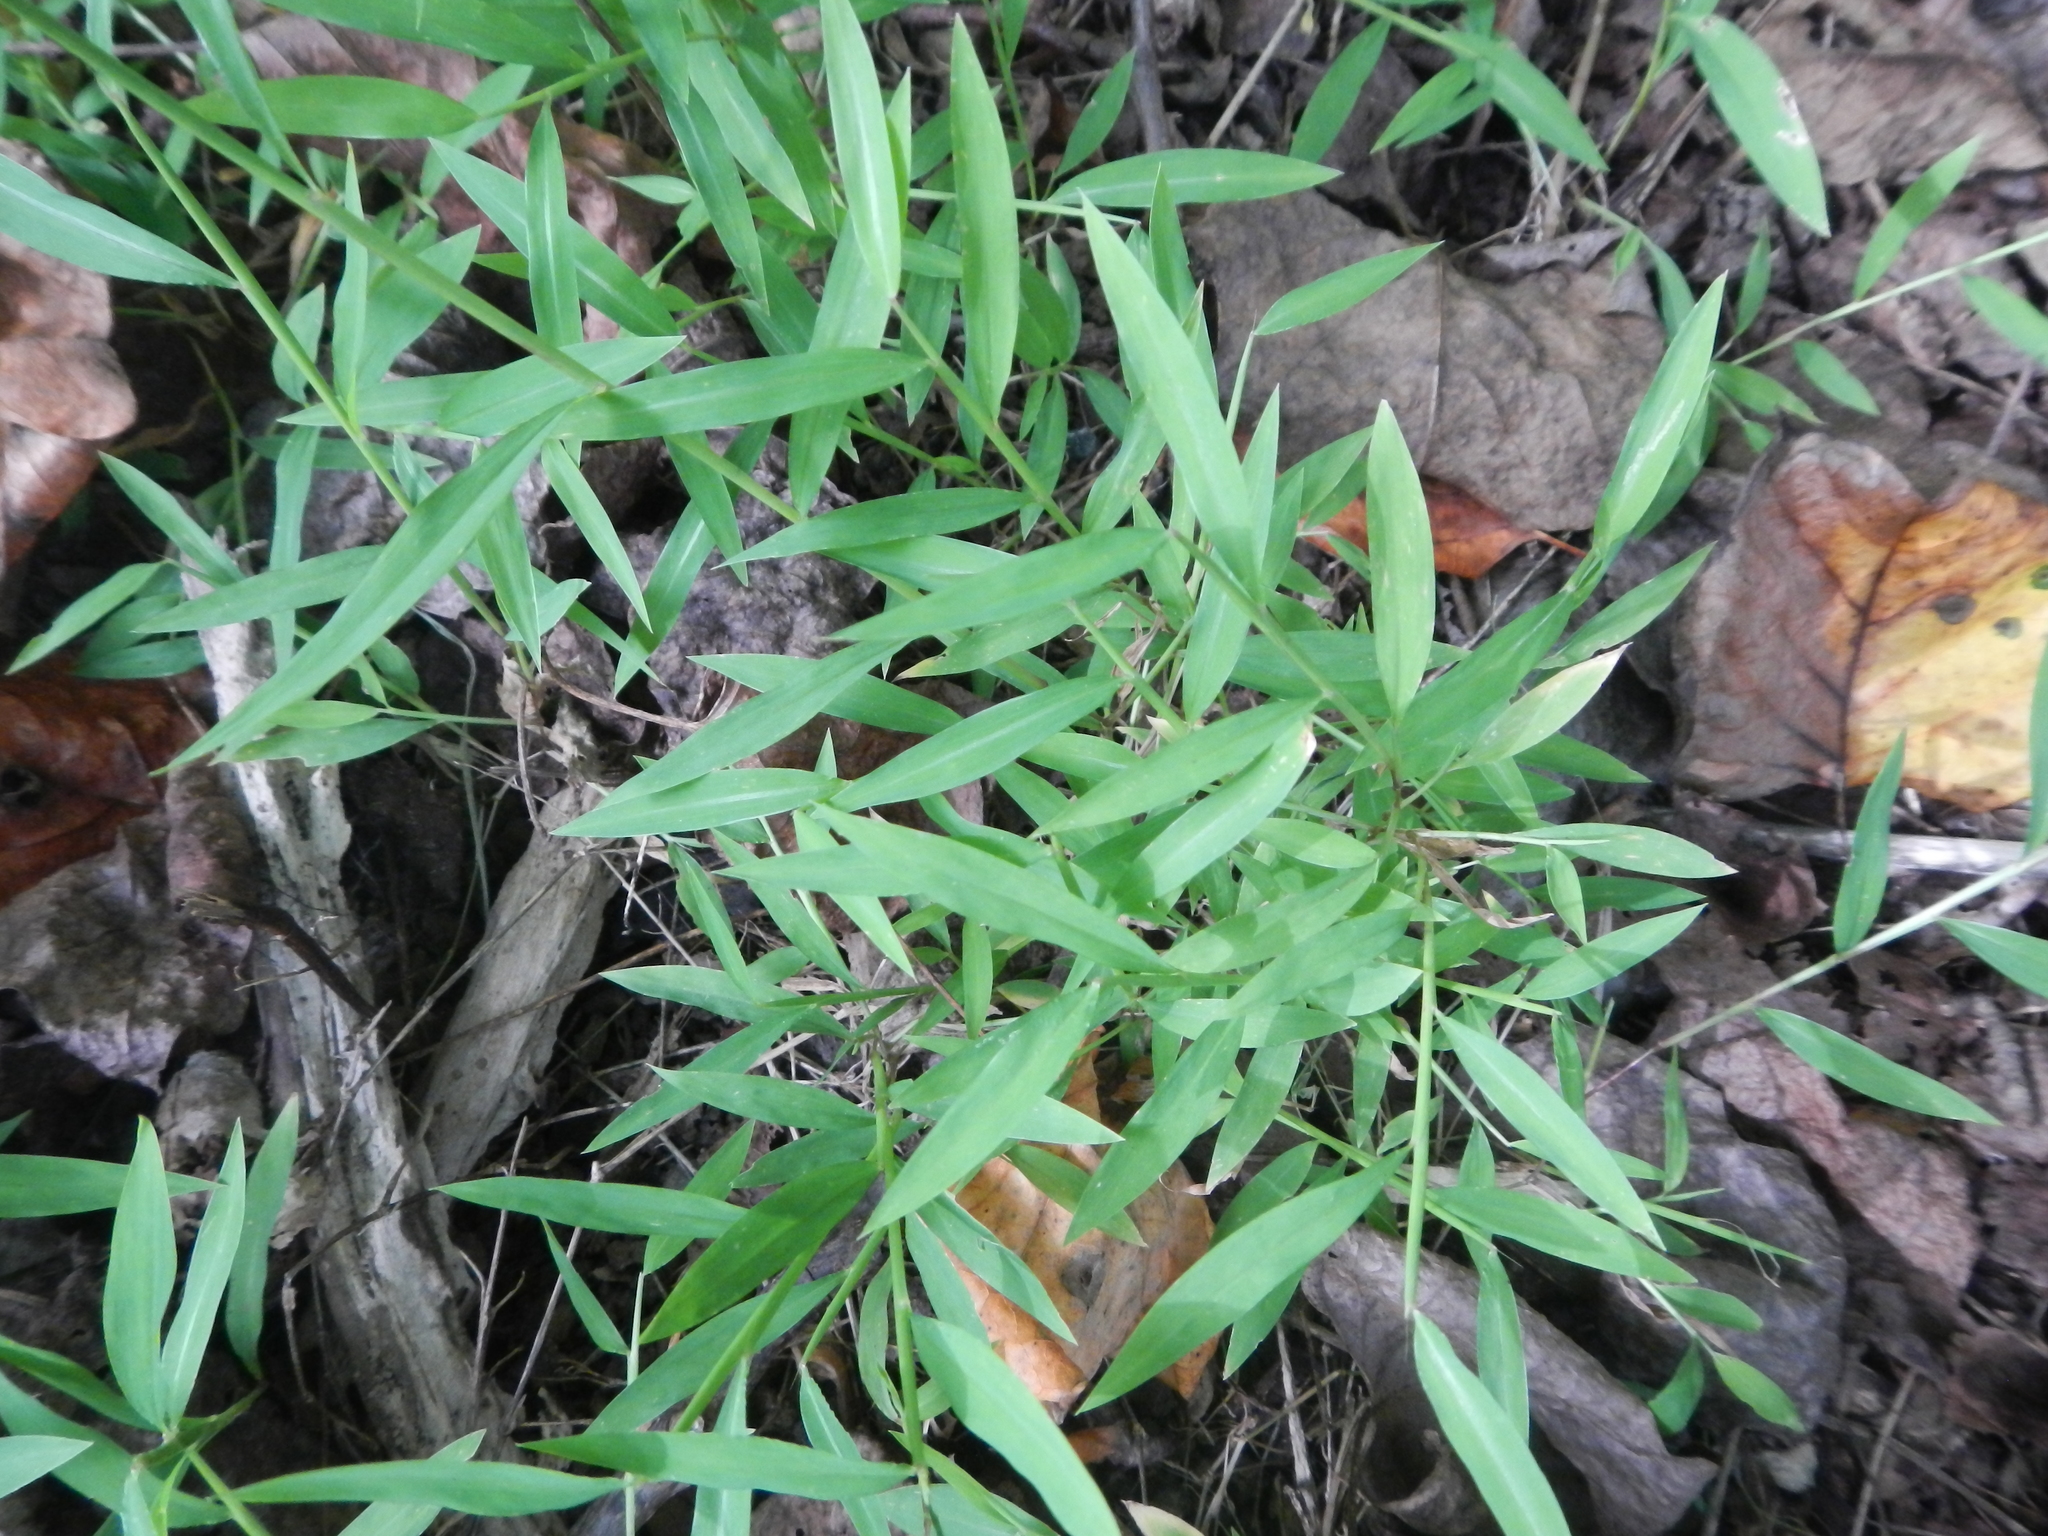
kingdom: Plantae
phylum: Tracheophyta
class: Liliopsida
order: Poales
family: Poaceae
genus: Microstegium
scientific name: Microstegium vimineum
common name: Japanese stiltgrass
